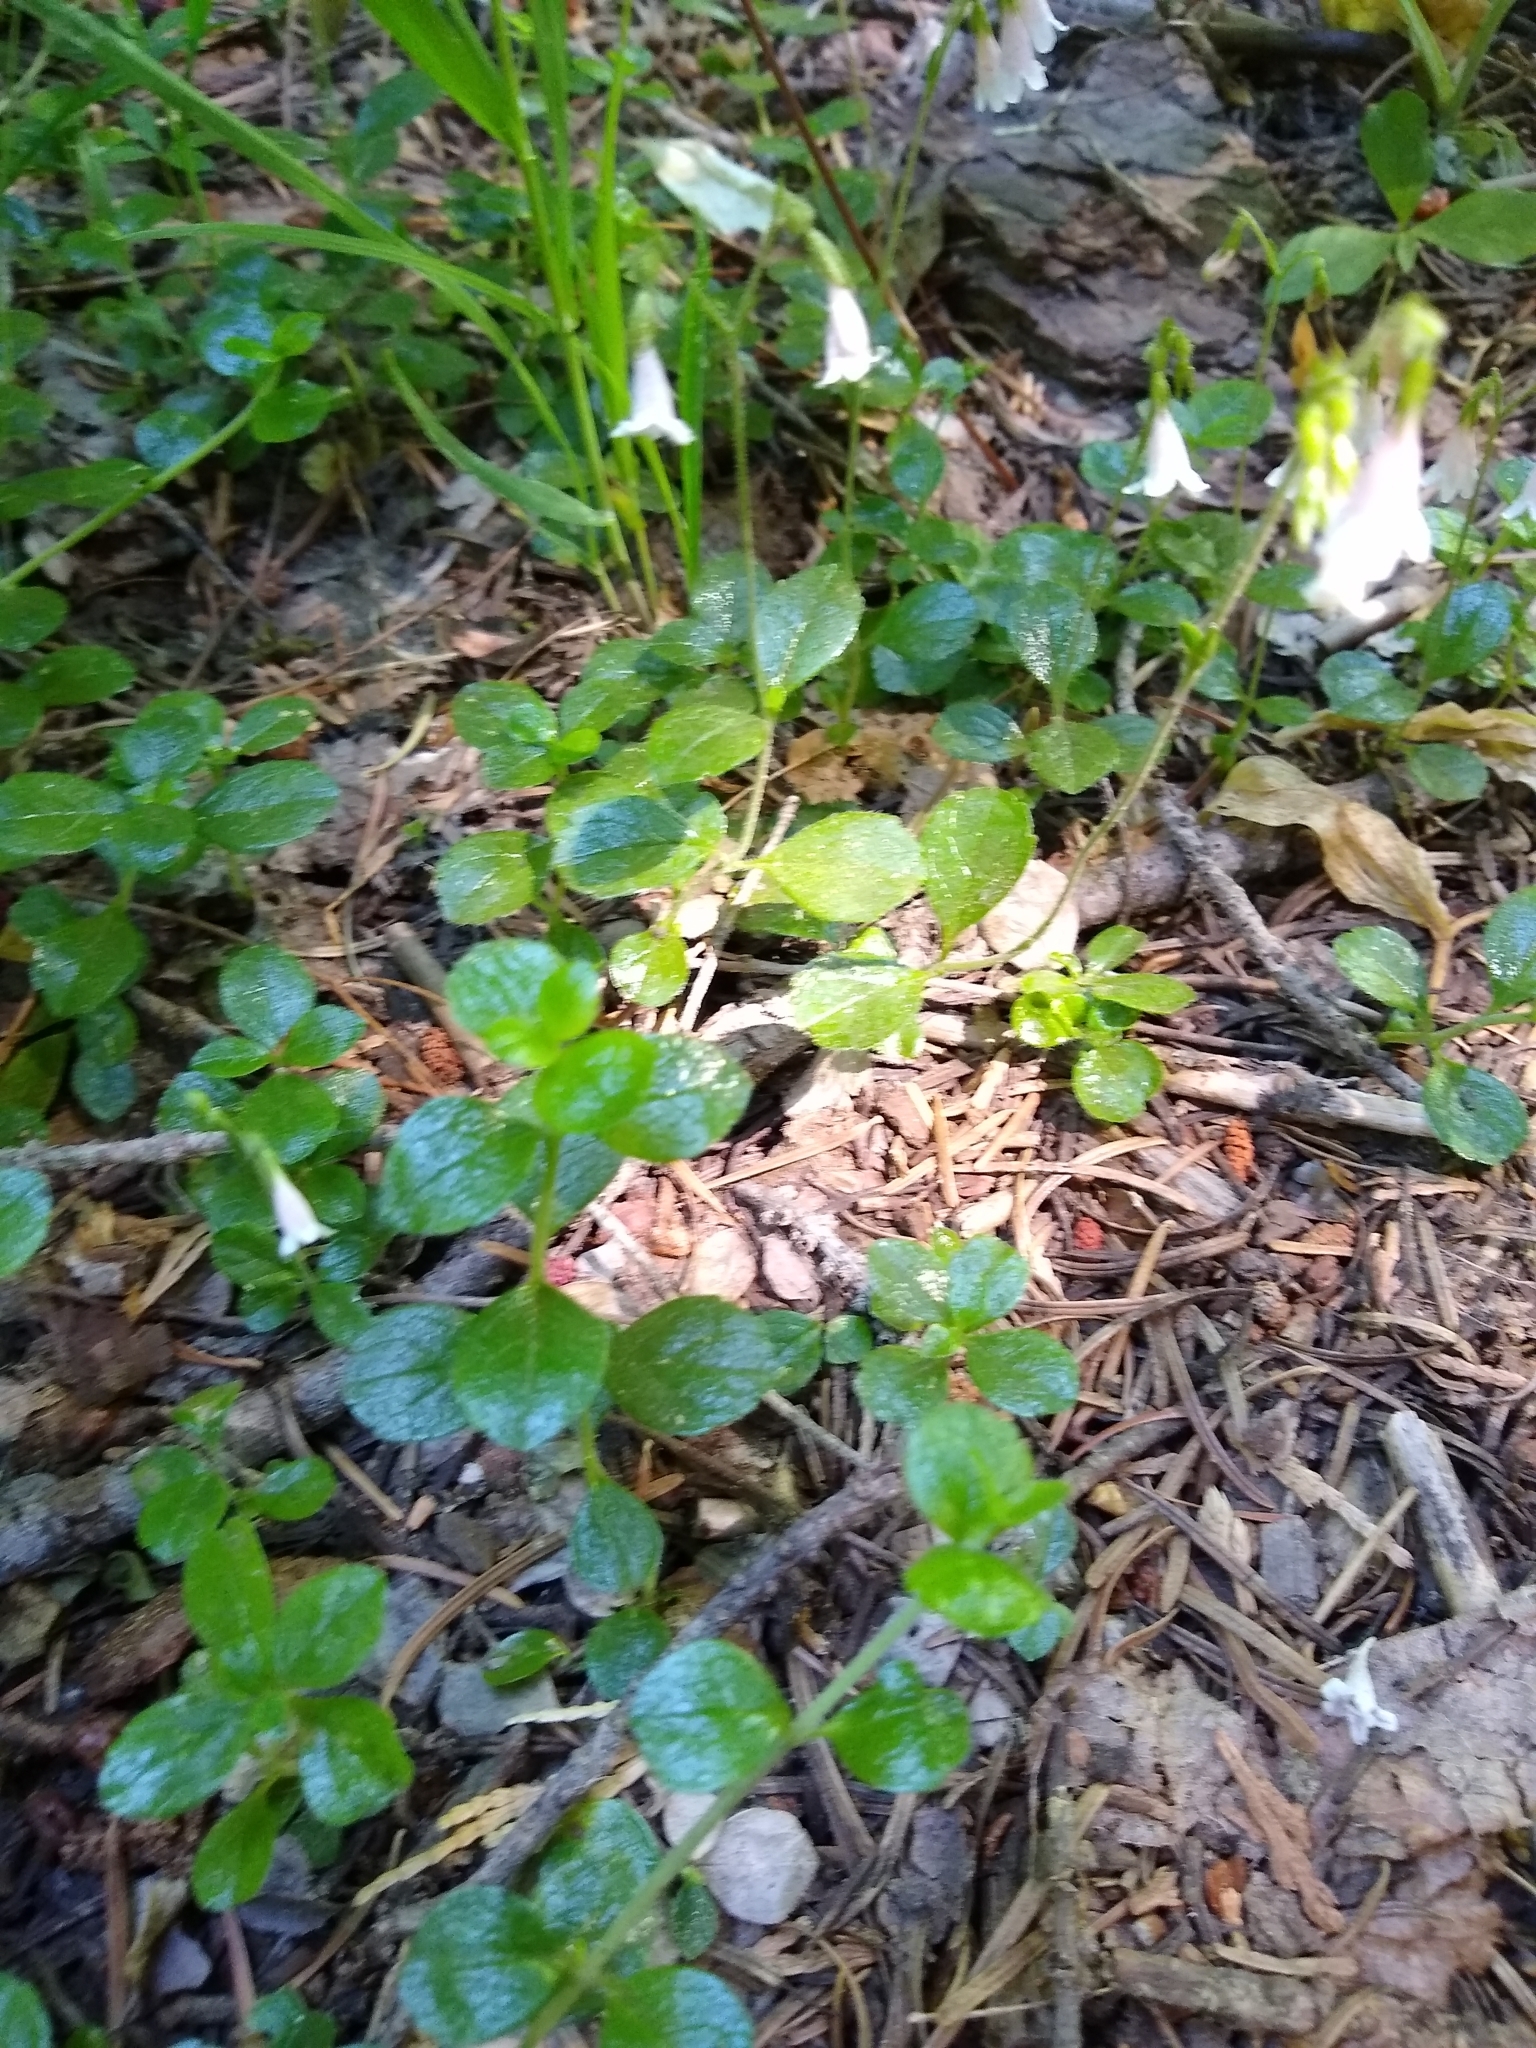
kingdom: Plantae
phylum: Tracheophyta
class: Magnoliopsida
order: Dipsacales
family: Caprifoliaceae
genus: Linnaea
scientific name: Linnaea borealis
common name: Twinflower
